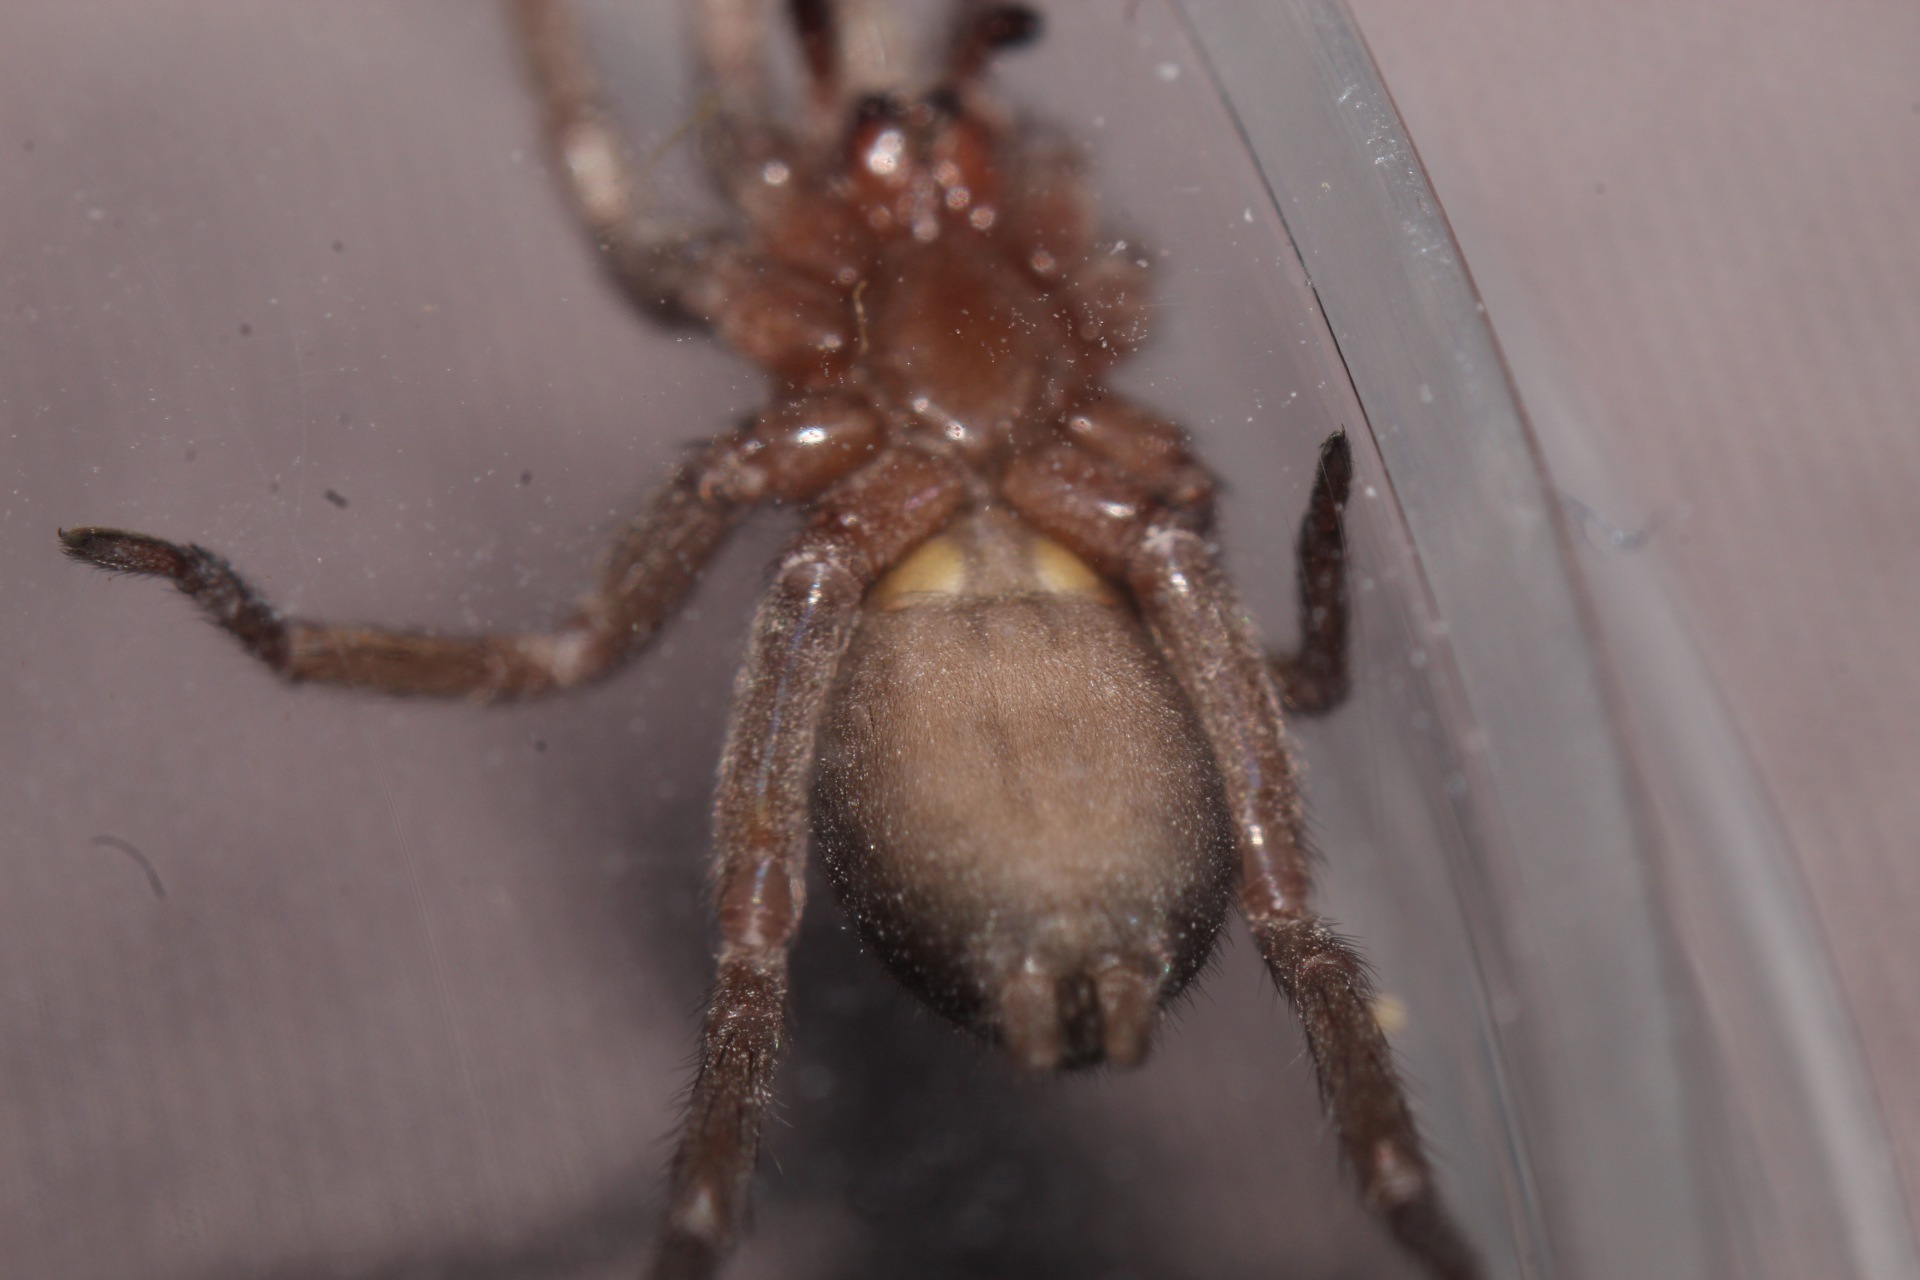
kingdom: Animalia
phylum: Arthropoda
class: Arachnida
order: Araneae
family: Gnaphosidae
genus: Scotophaeus
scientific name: Scotophaeus blackwalli
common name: Mouse spider
